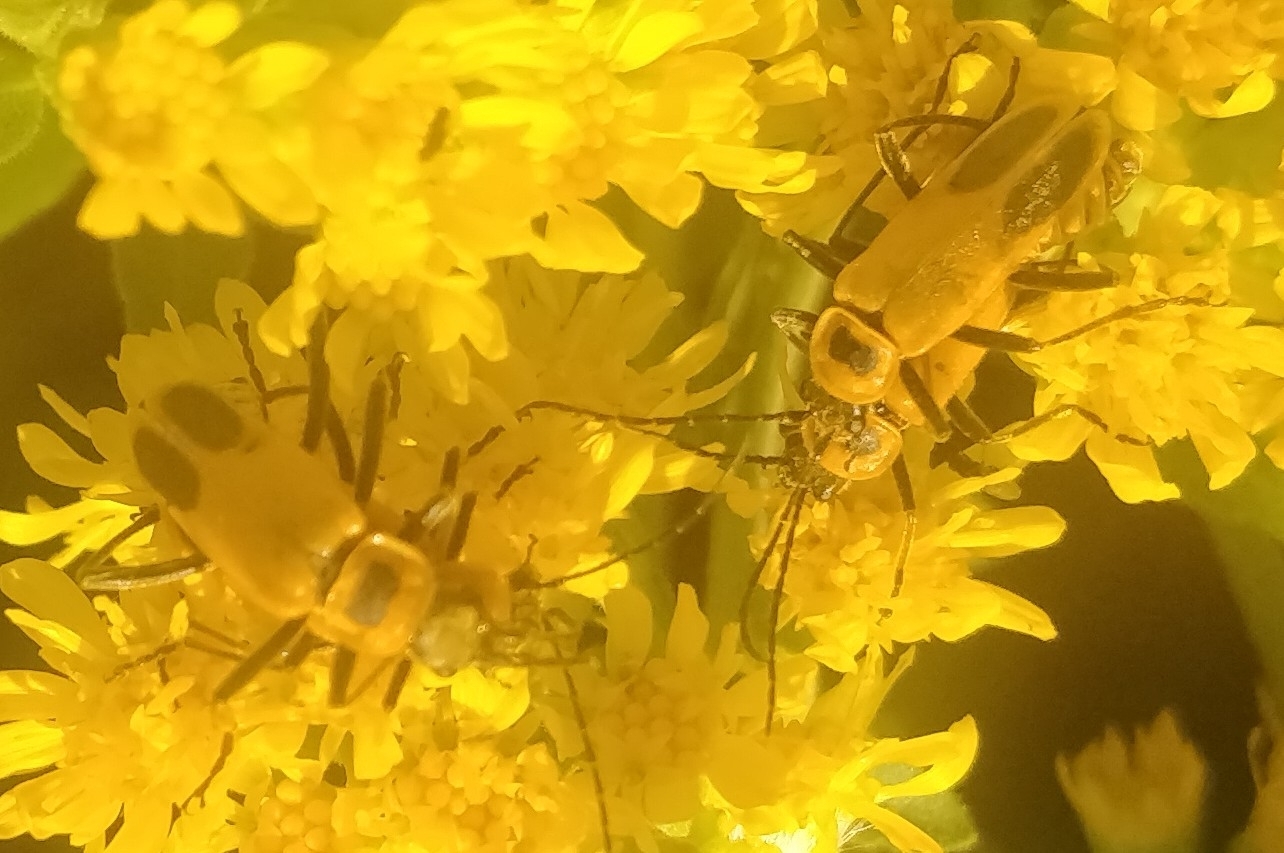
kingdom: Animalia
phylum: Arthropoda
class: Insecta
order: Coleoptera
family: Cantharidae
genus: Chauliognathus
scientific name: Chauliognathus pensylvanicus
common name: Goldenrod soldier beetle
